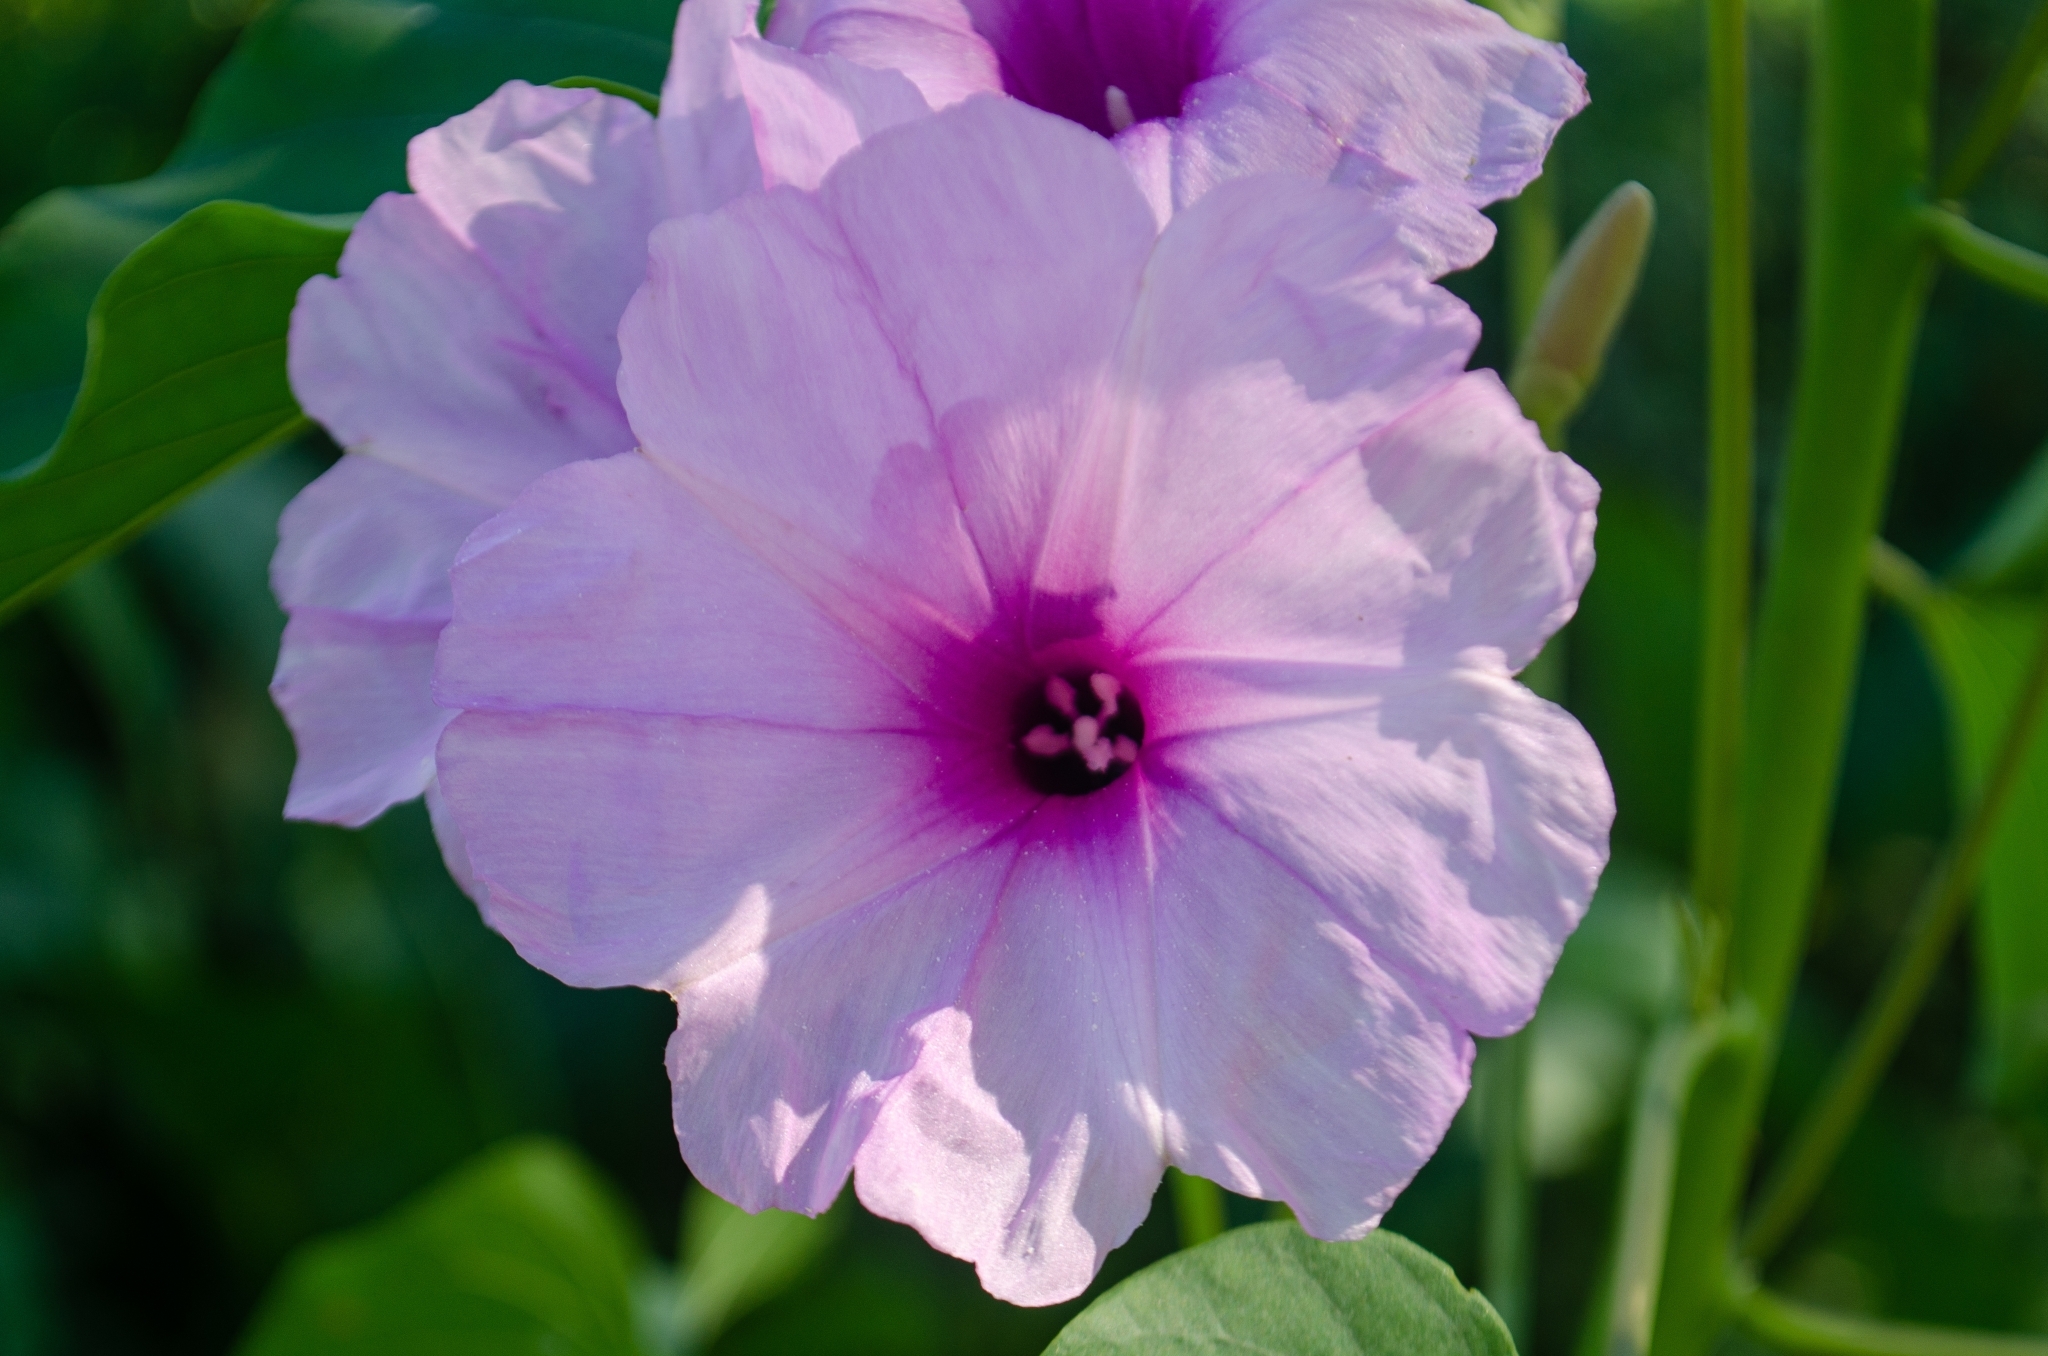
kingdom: Plantae
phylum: Tracheophyta
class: Magnoliopsida
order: Solanales
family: Convolvulaceae
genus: Ipomoea
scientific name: Ipomoea carnea
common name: Morning-glory
